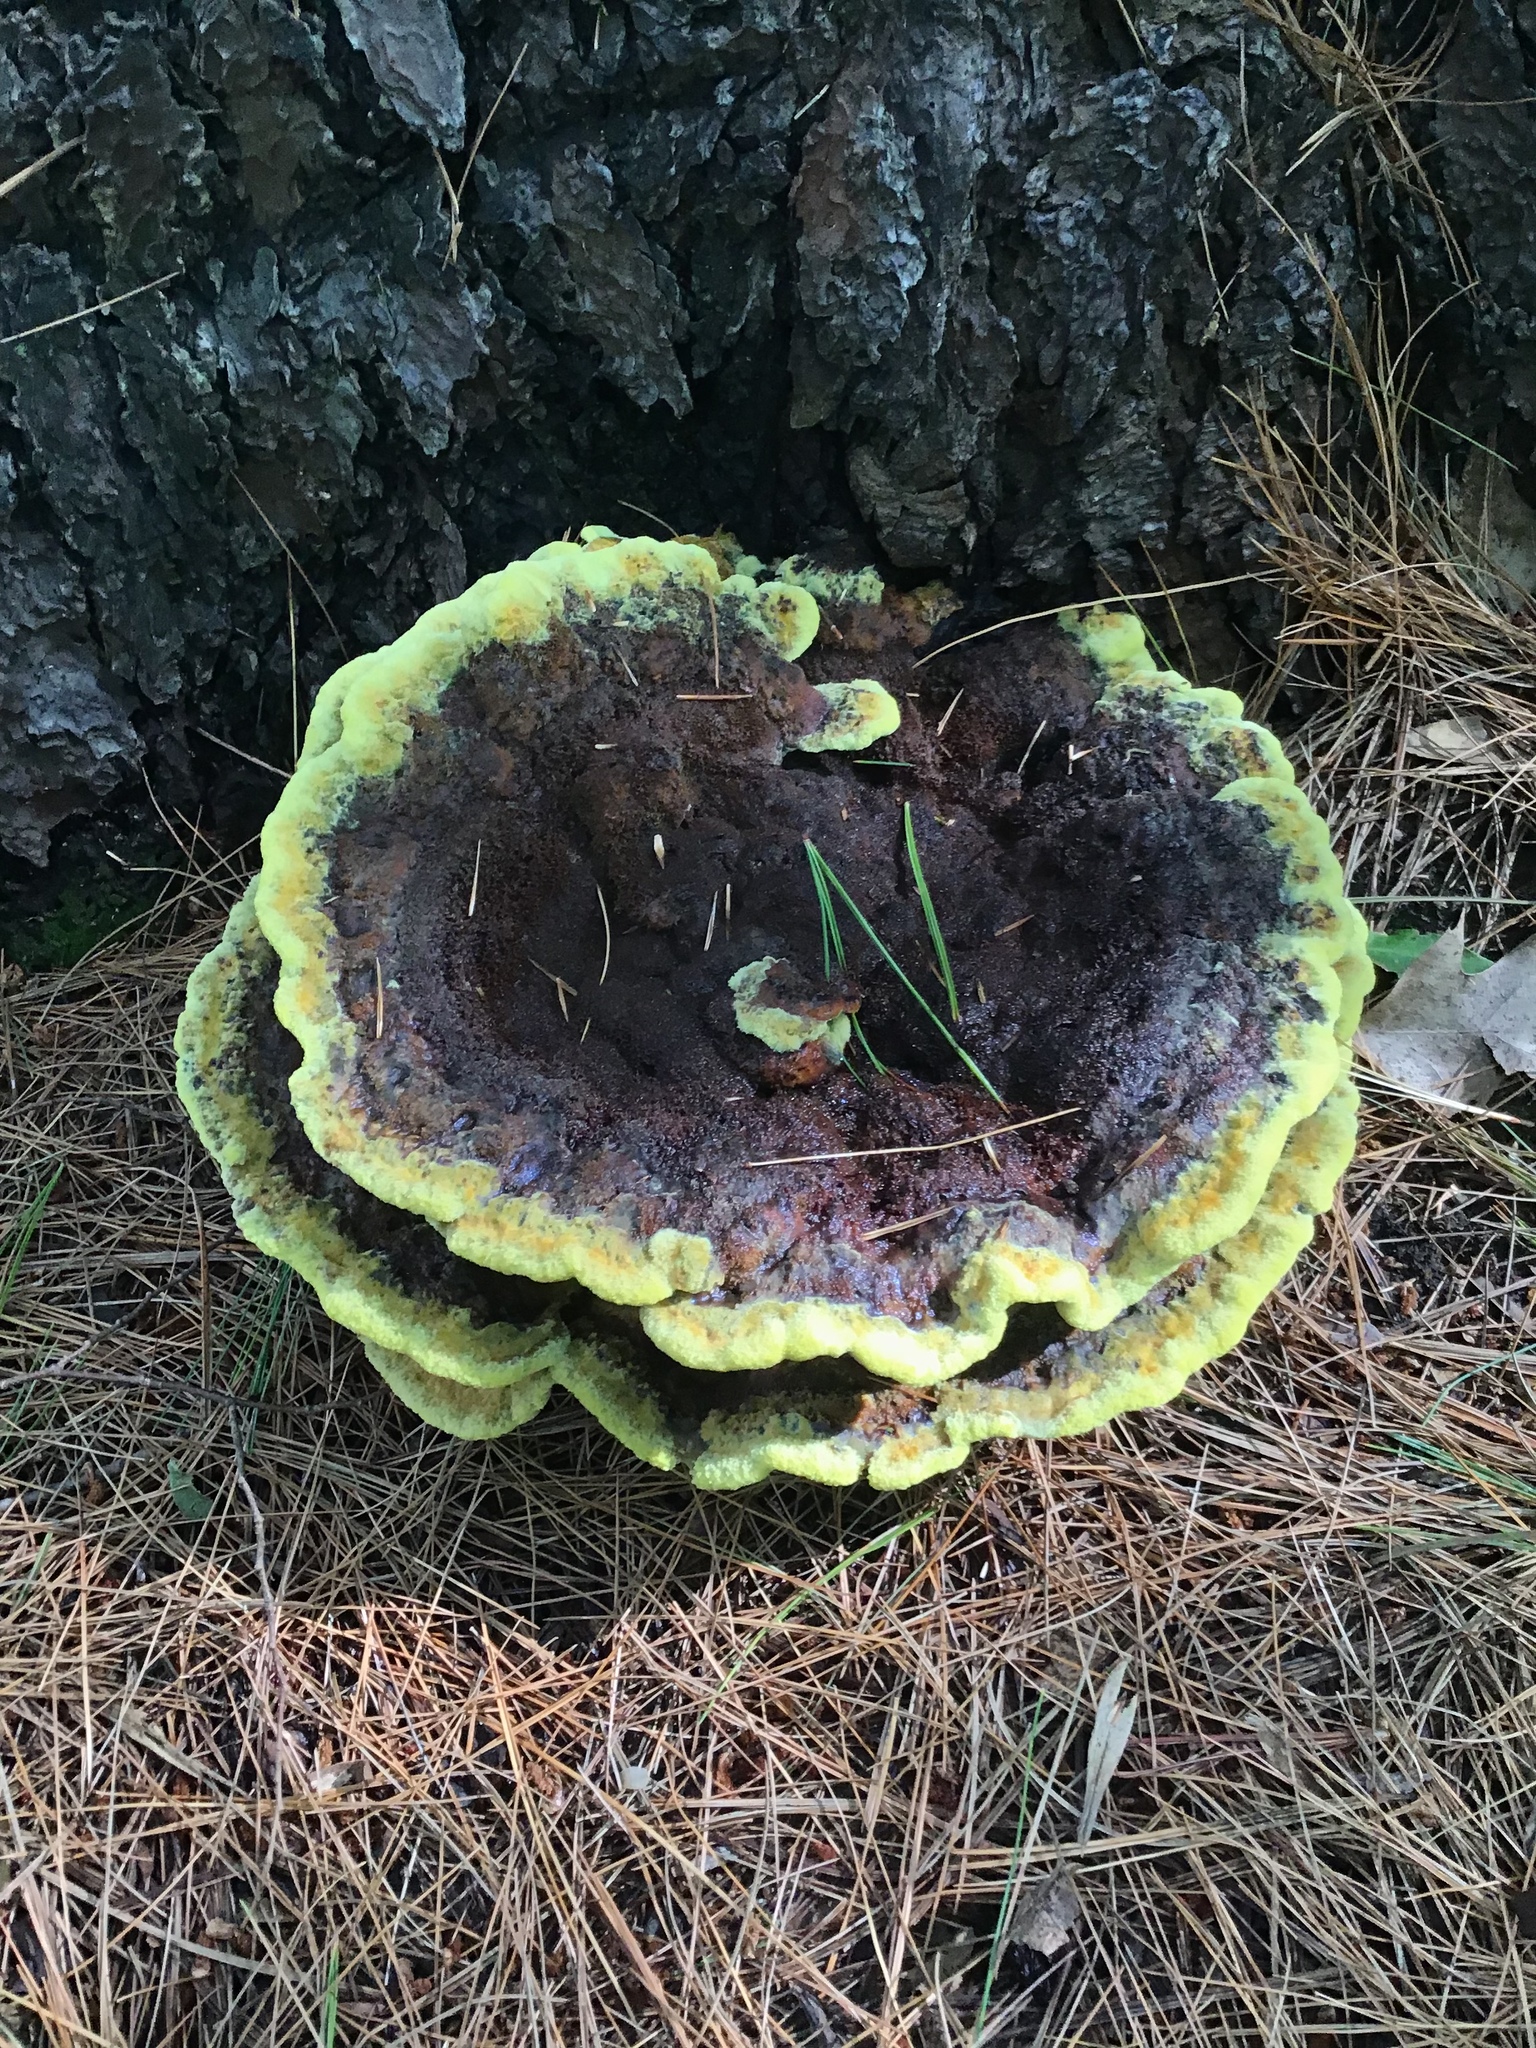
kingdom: Fungi
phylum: Basidiomycota
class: Agaricomycetes
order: Polyporales
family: Laetiporaceae
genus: Phaeolus
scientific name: Phaeolus schweinitzii
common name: Dyer's mazegill
